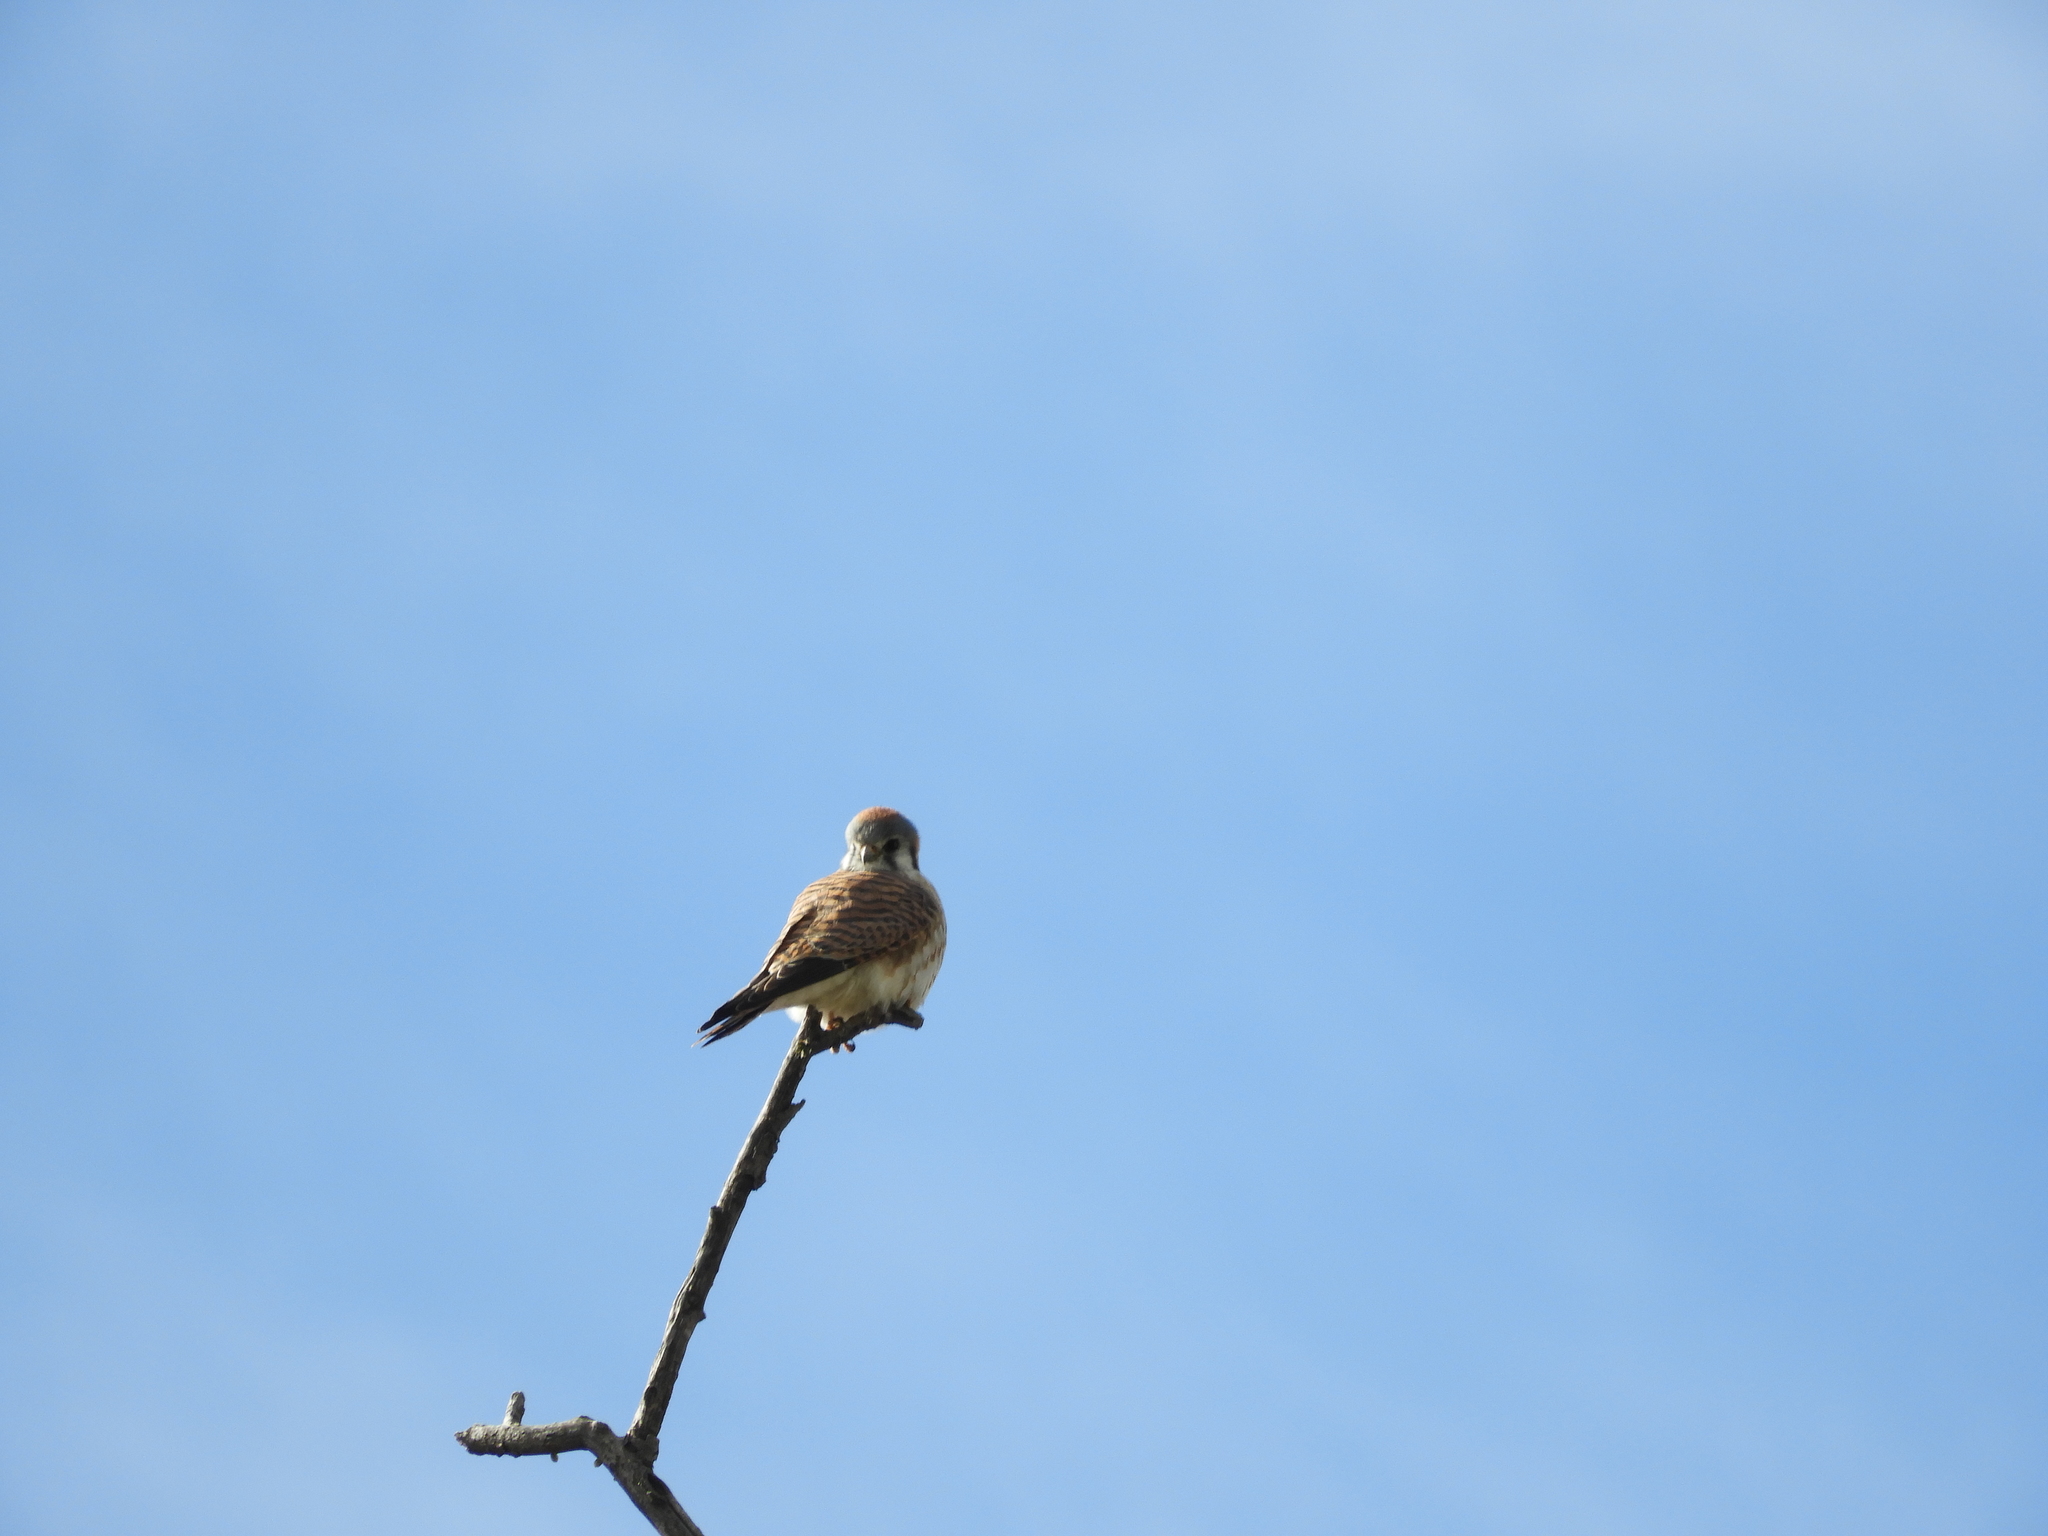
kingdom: Animalia
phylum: Chordata
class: Aves
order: Falconiformes
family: Falconidae
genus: Falco
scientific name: Falco sparverius
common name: American kestrel
